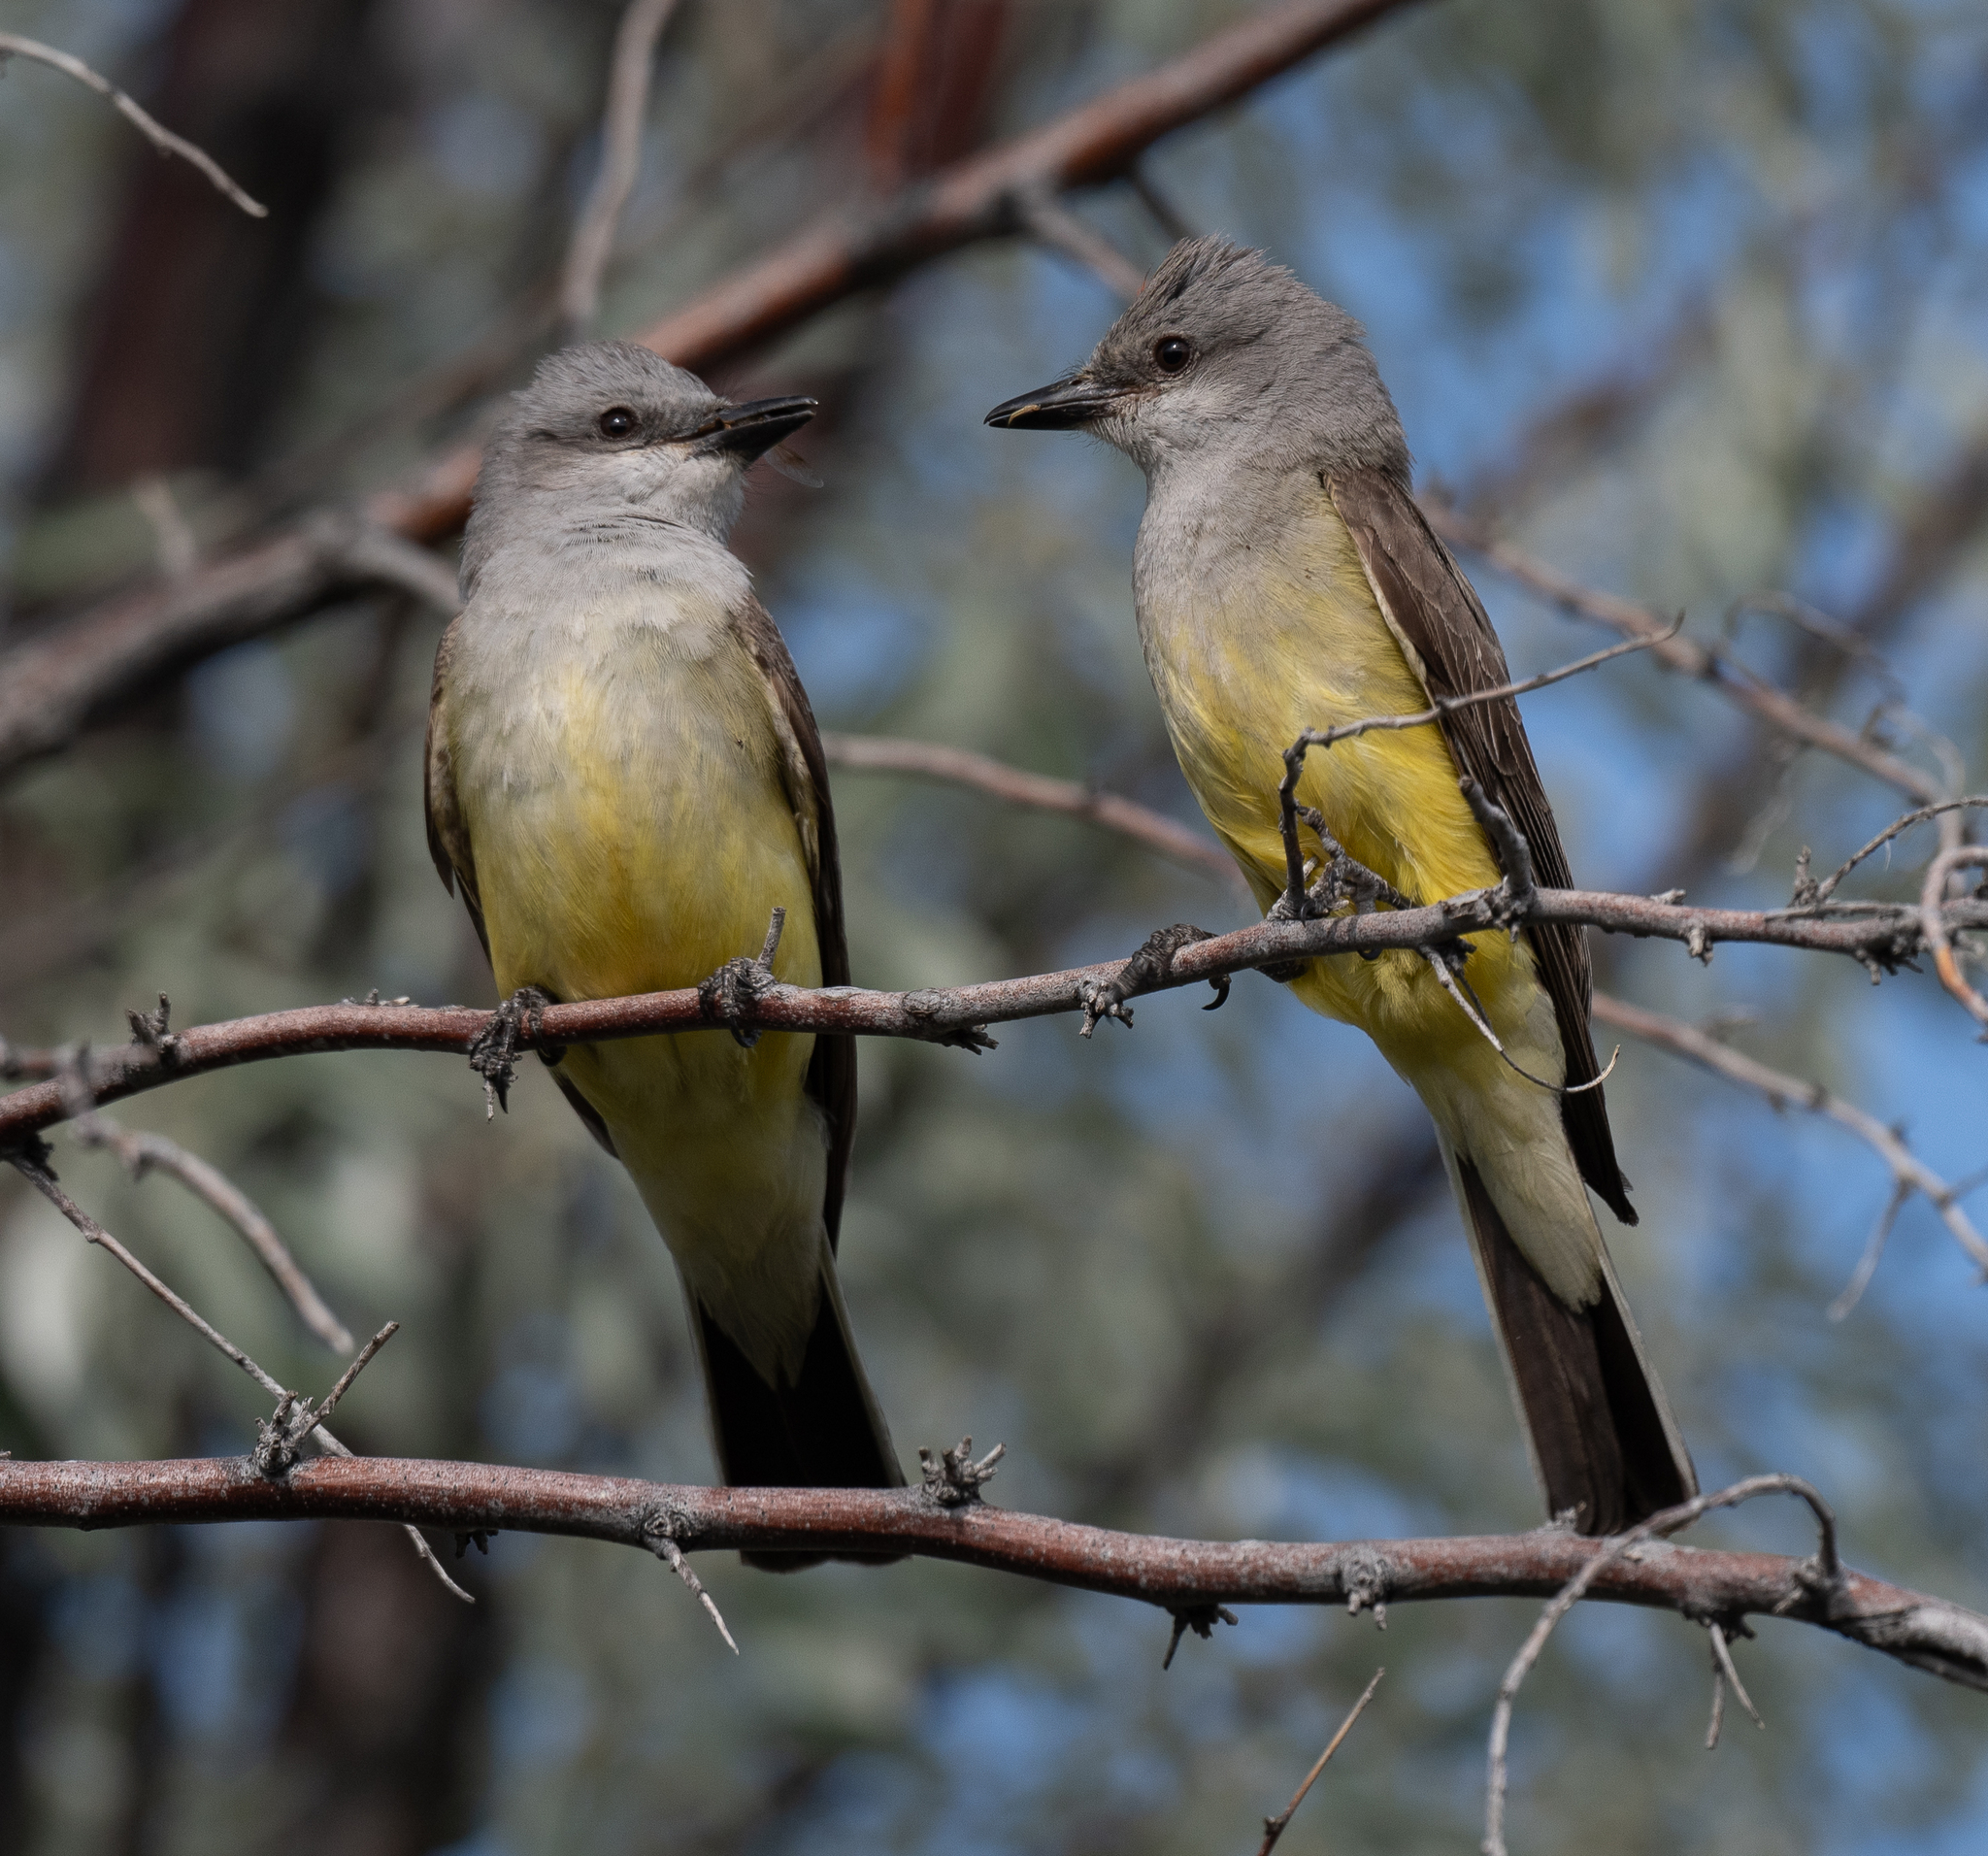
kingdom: Animalia
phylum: Chordata
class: Aves
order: Passeriformes
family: Tyrannidae
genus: Tyrannus
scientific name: Tyrannus verticalis
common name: Western kingbird
